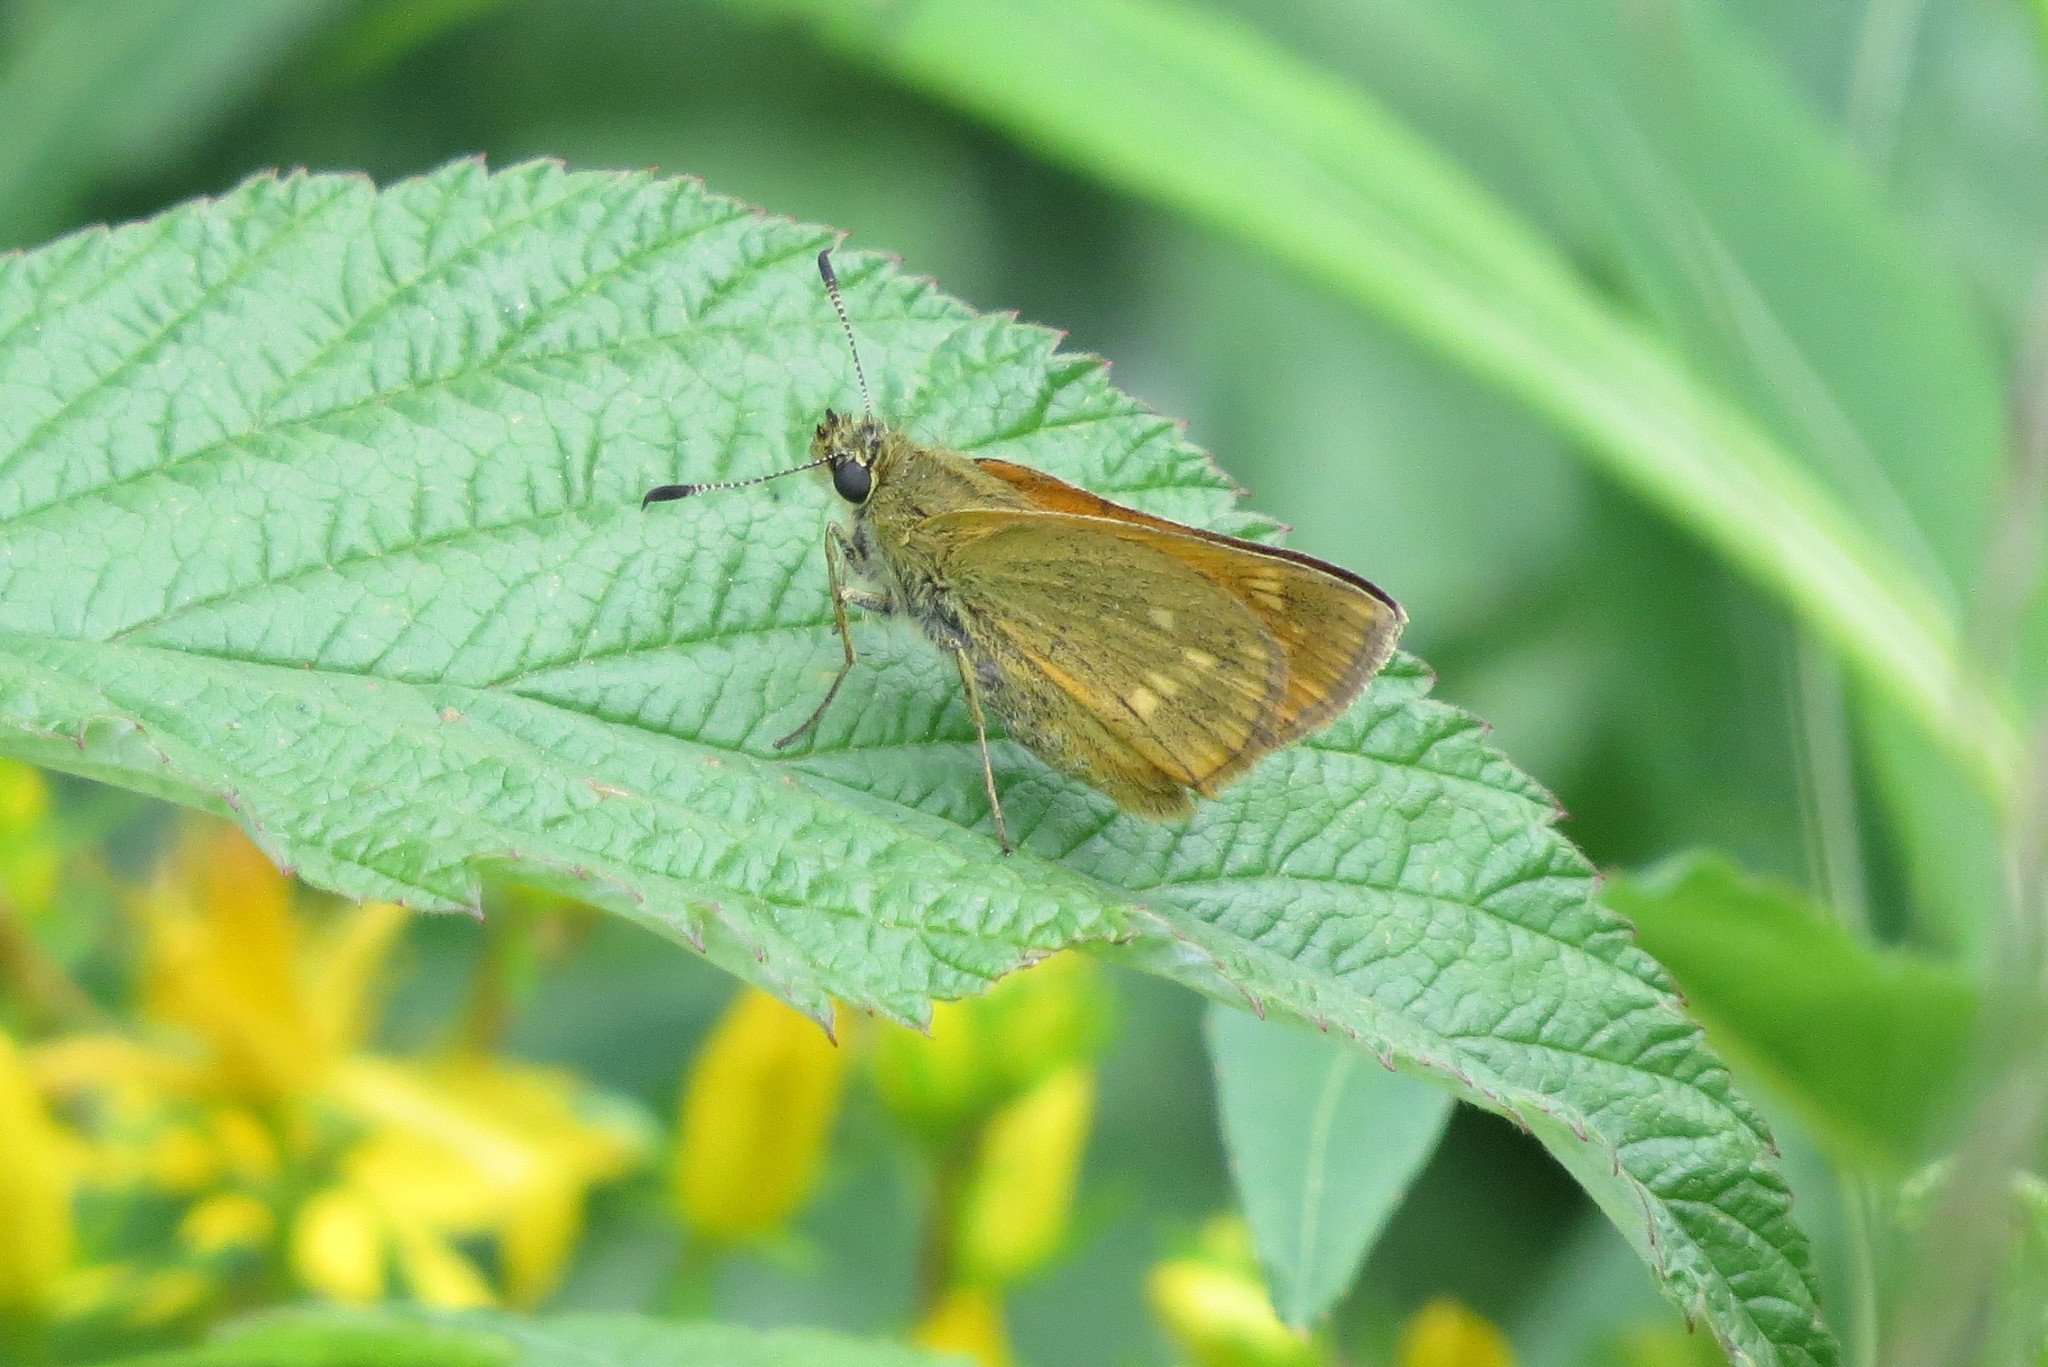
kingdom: Animalia
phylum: Arthropoda
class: Insecta
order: Lepidoptera
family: Hesperiidae
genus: Ochlodes
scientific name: Ochlodes venata
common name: Large skipper
